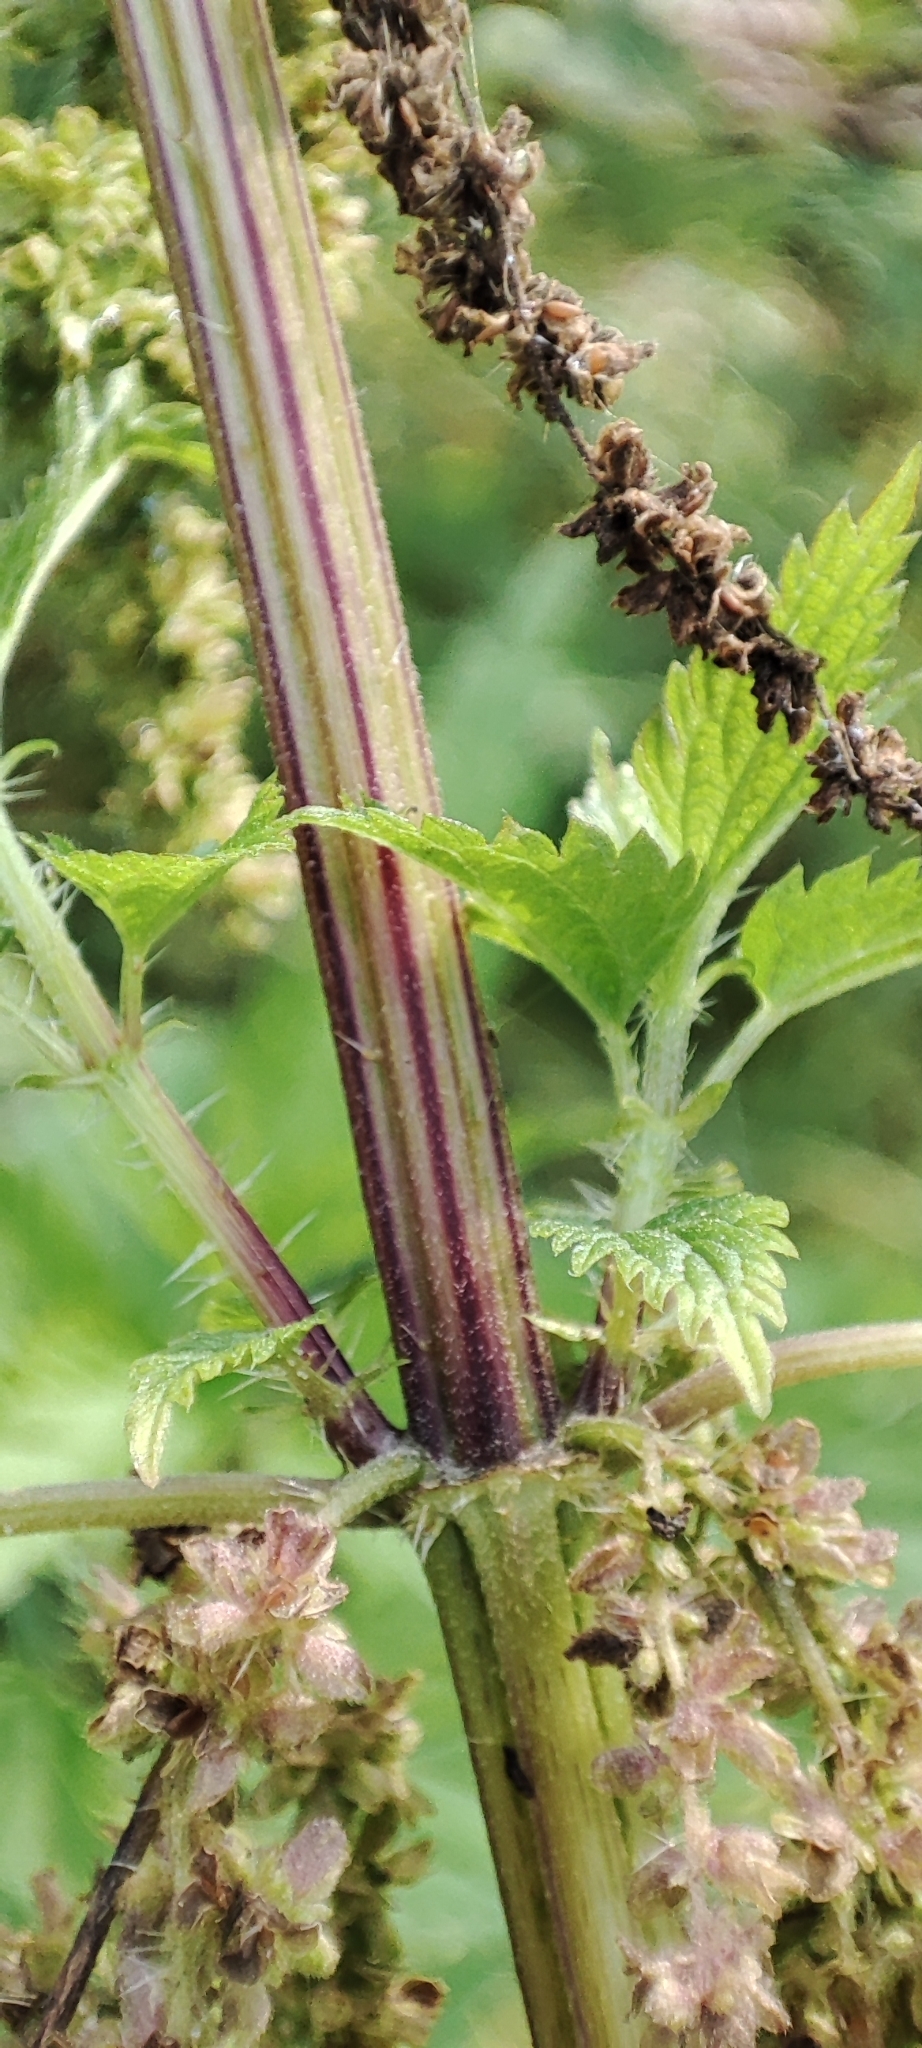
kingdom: Plantae
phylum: Tracheophyta
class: Magnoliopsida
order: Rosales
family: Urticaceae
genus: Urtica
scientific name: Urtica dioica
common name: Common nettle
